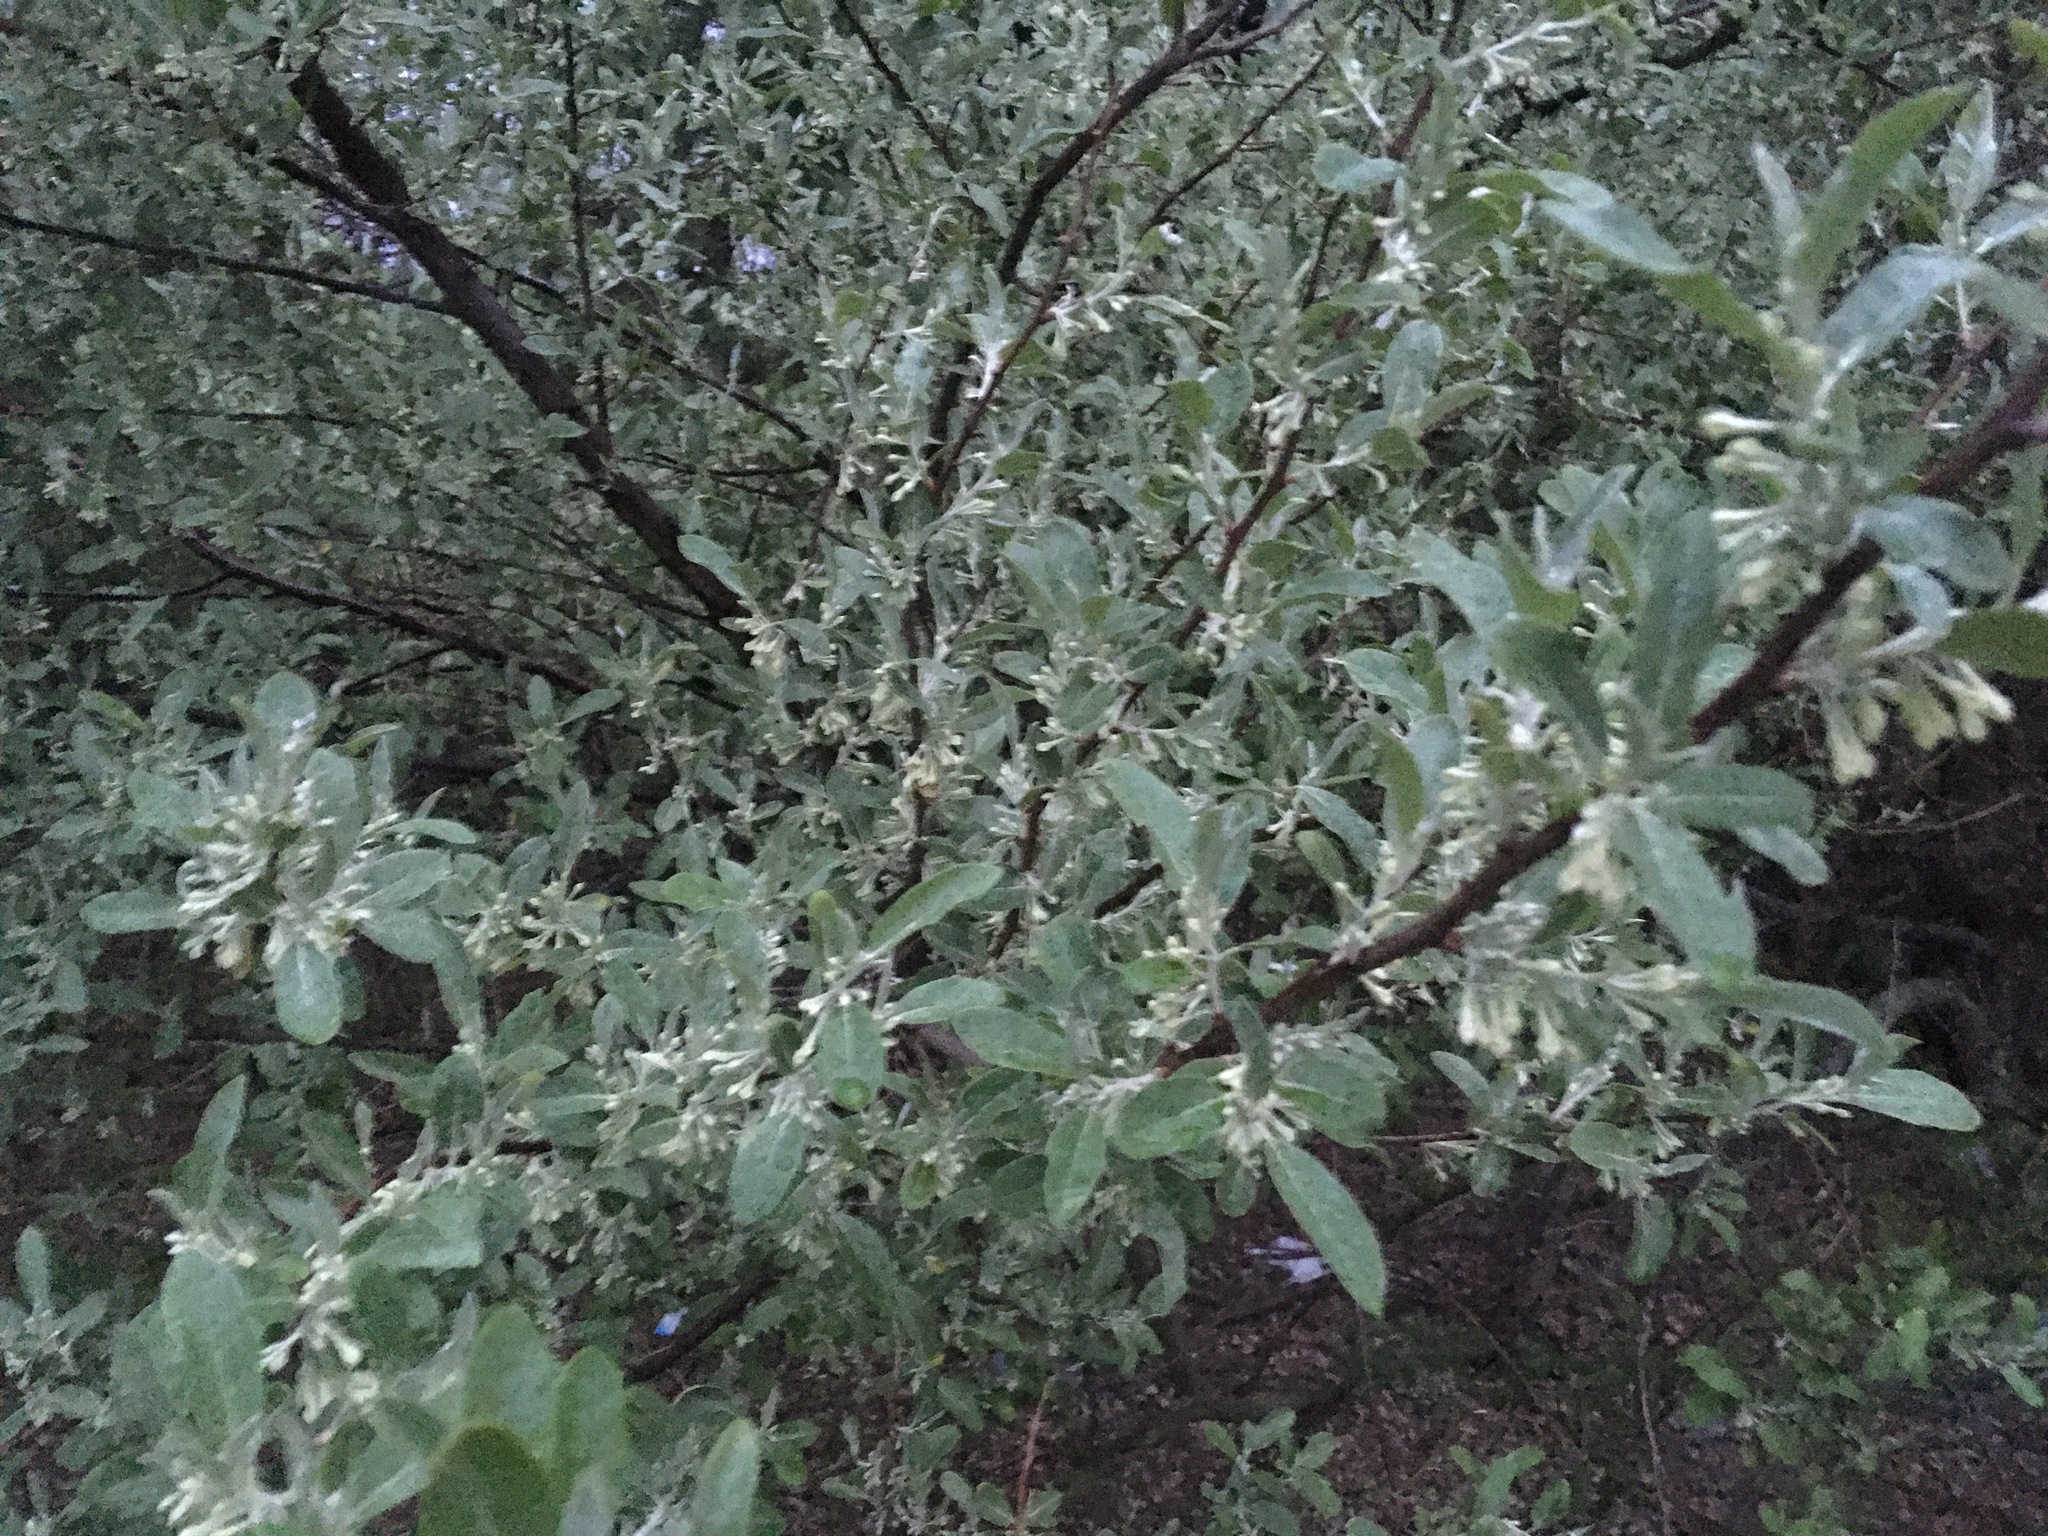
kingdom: Plantae
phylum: Tracheophyta
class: Magnoliopsida
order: Rosales
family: Elaeagnaceae
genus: Elaeagnus
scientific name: Elaeagnus umbellata
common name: Autumn olive
